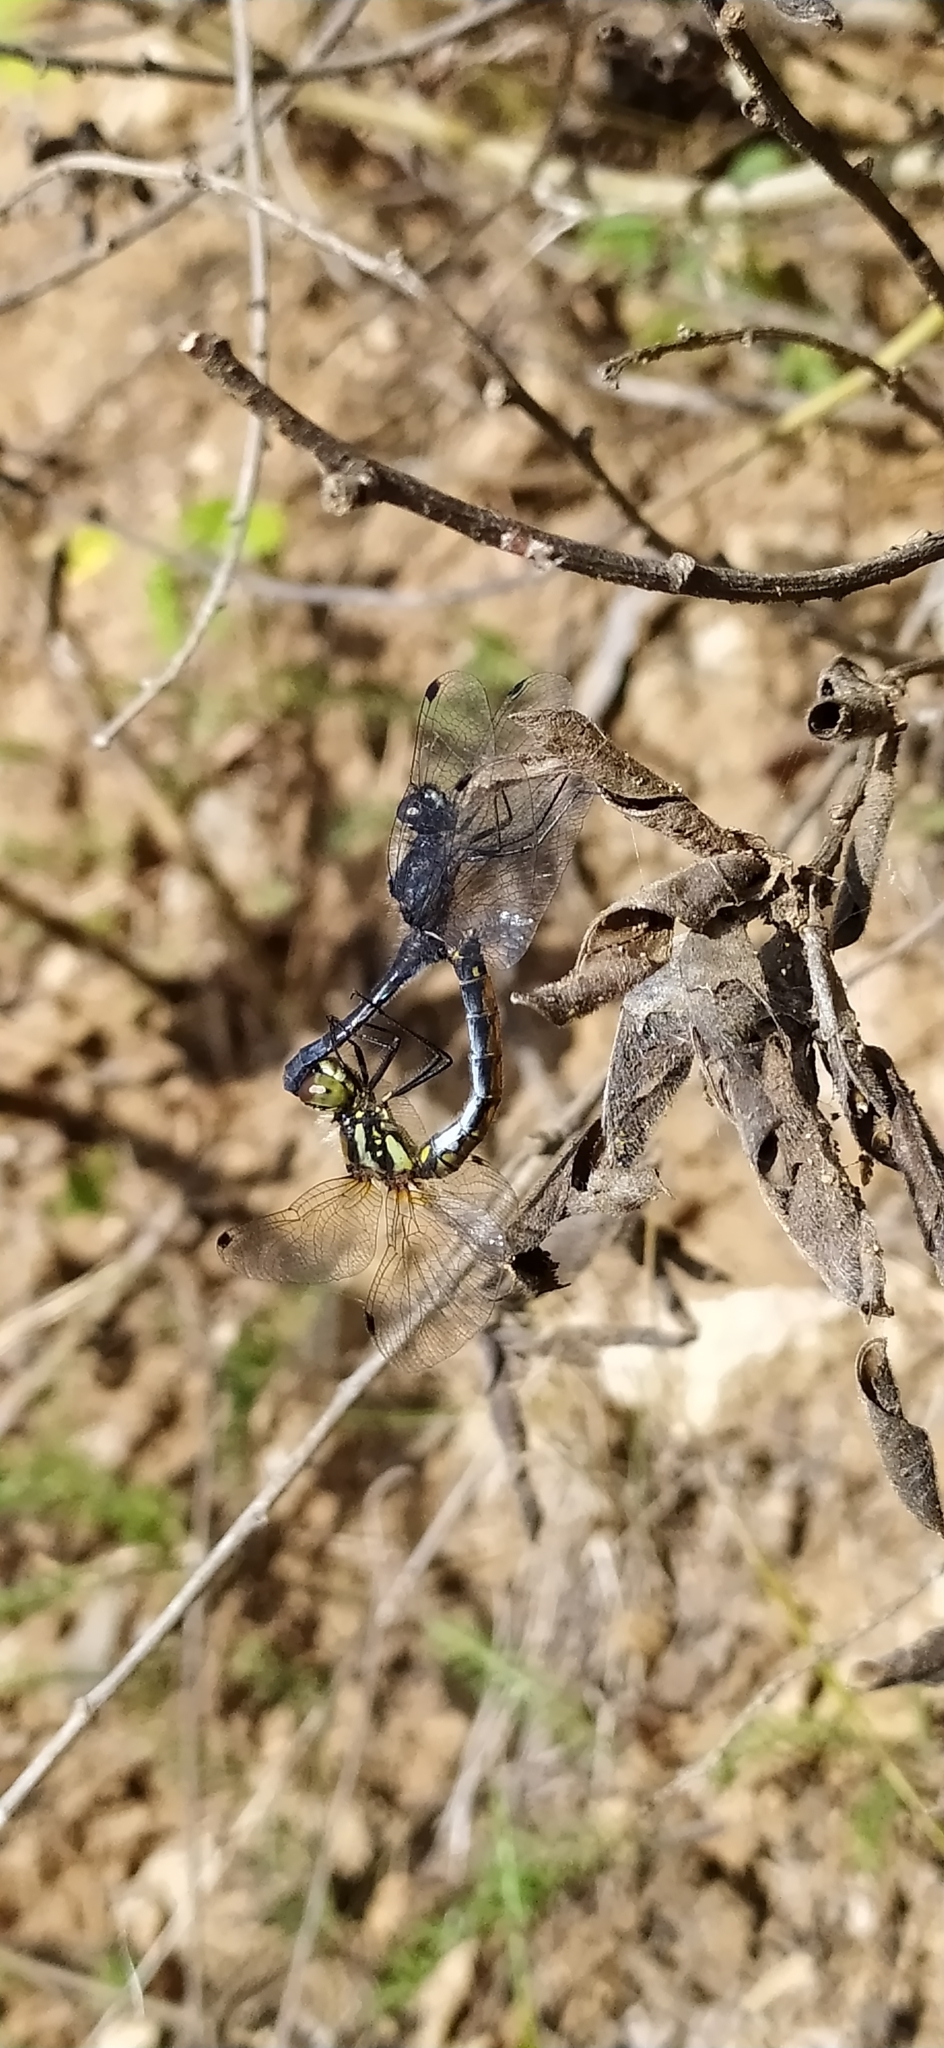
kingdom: Animalia
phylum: Arthropoda
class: Insecta
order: Odonata
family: Libellulidae
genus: Sympetrum
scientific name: Sympetrum danae
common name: Black darter
